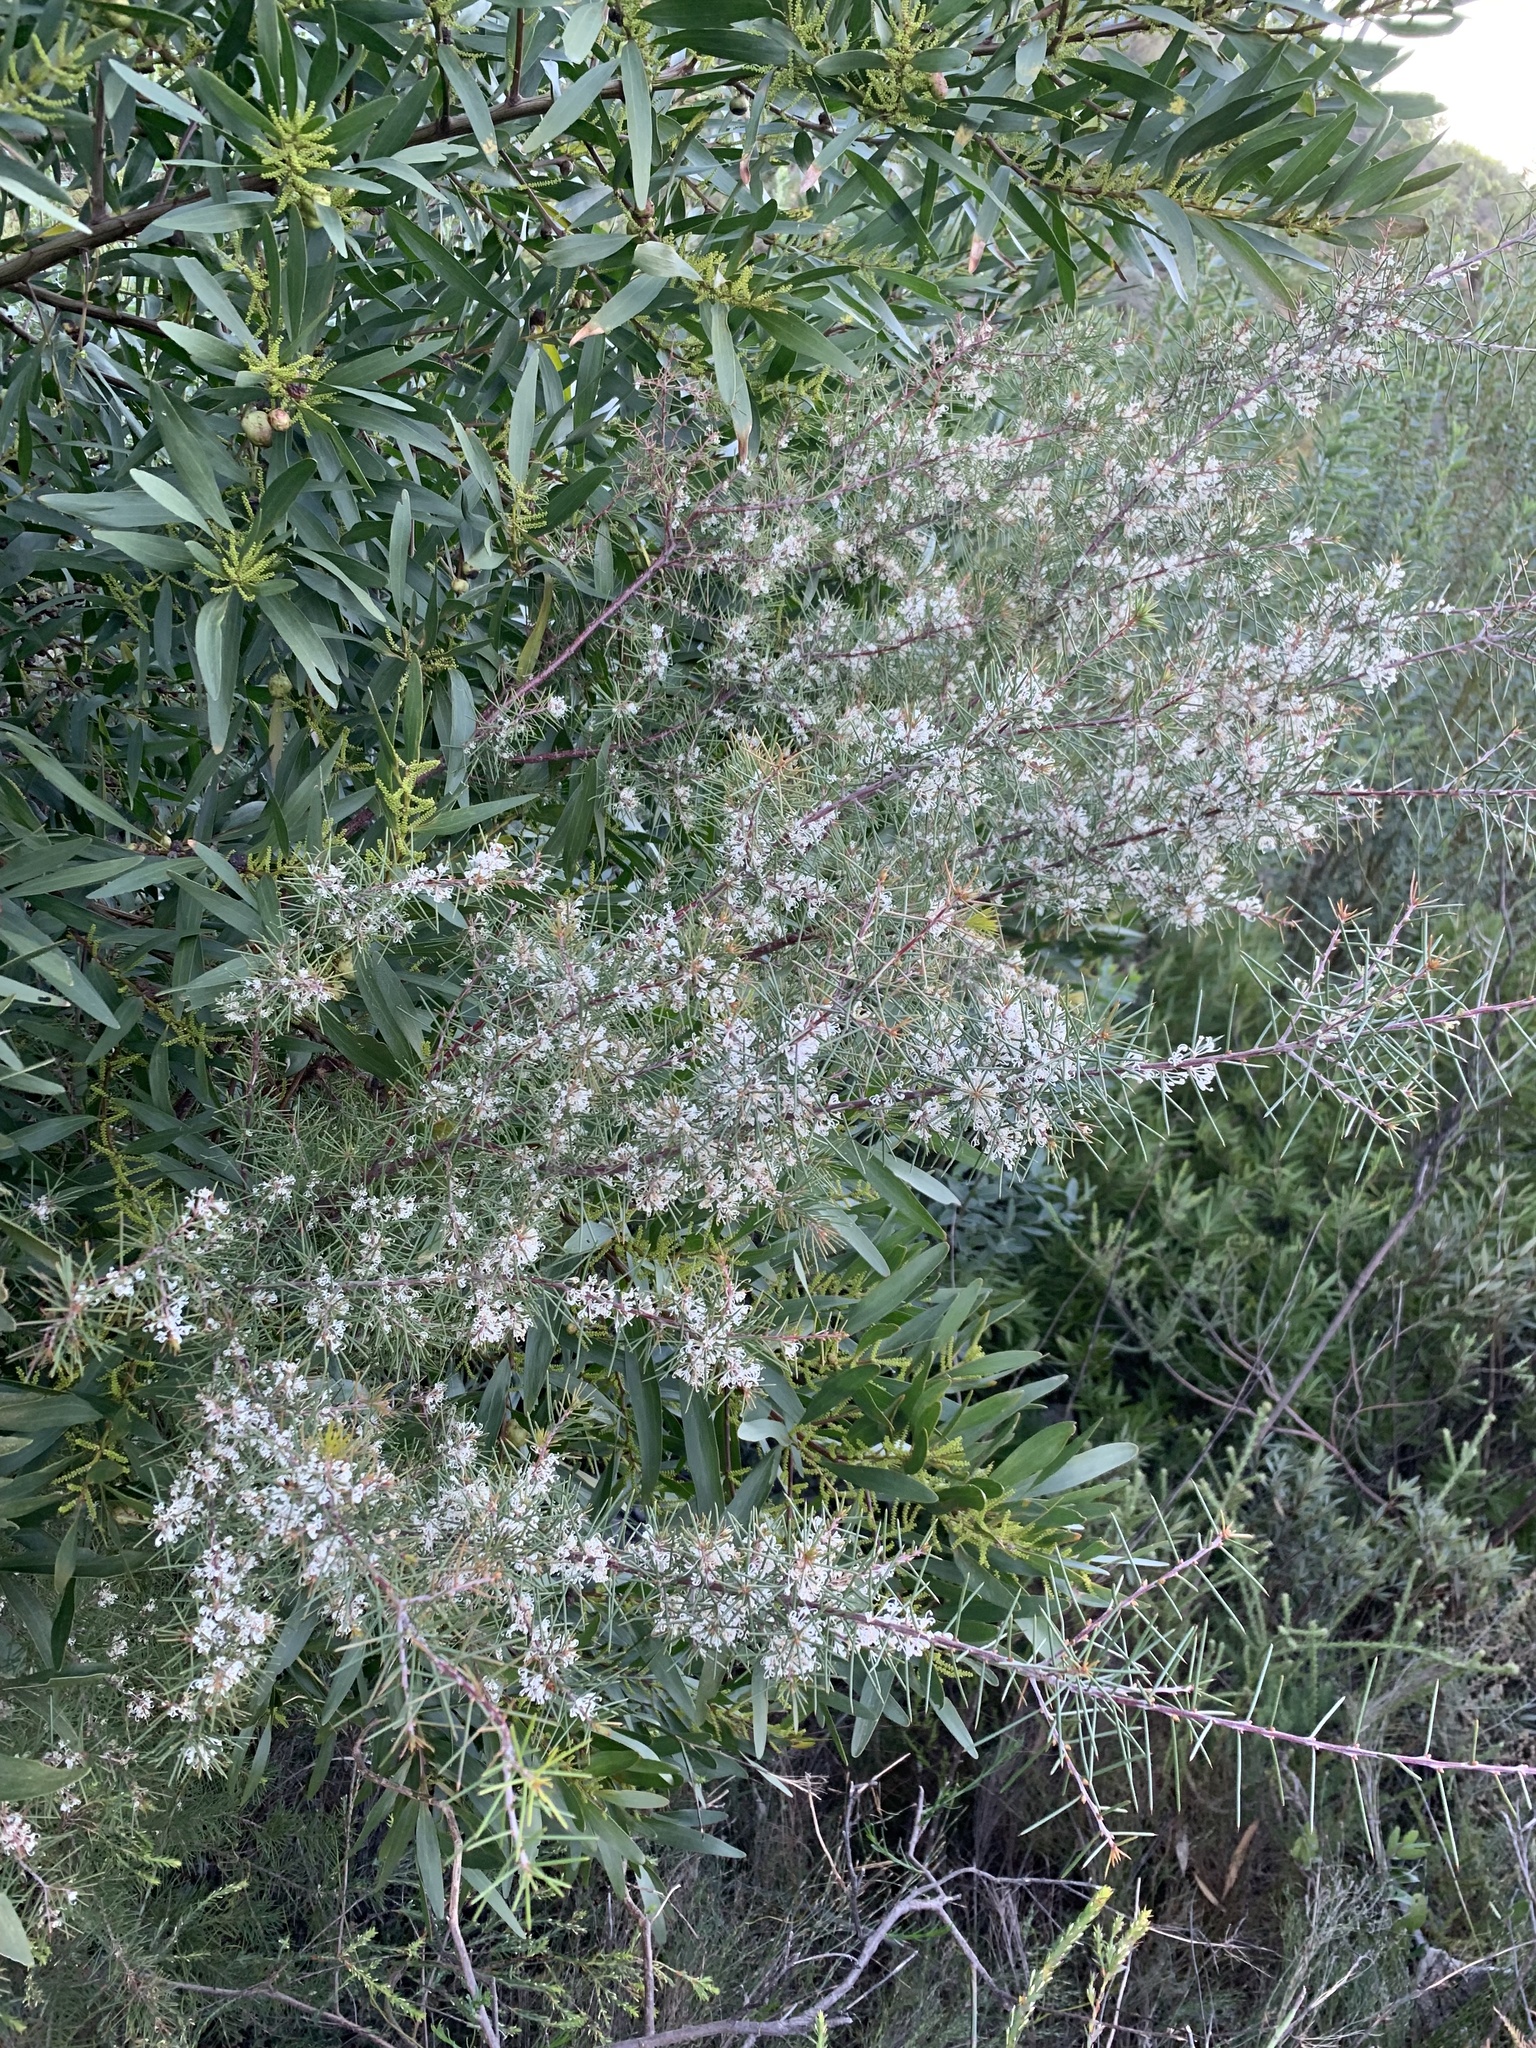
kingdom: Plantae
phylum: Tracheophyta
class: Magnoliopsida
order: Proteales
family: Proteaceae
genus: Hakea
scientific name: Hakea sericea
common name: Needle bush
